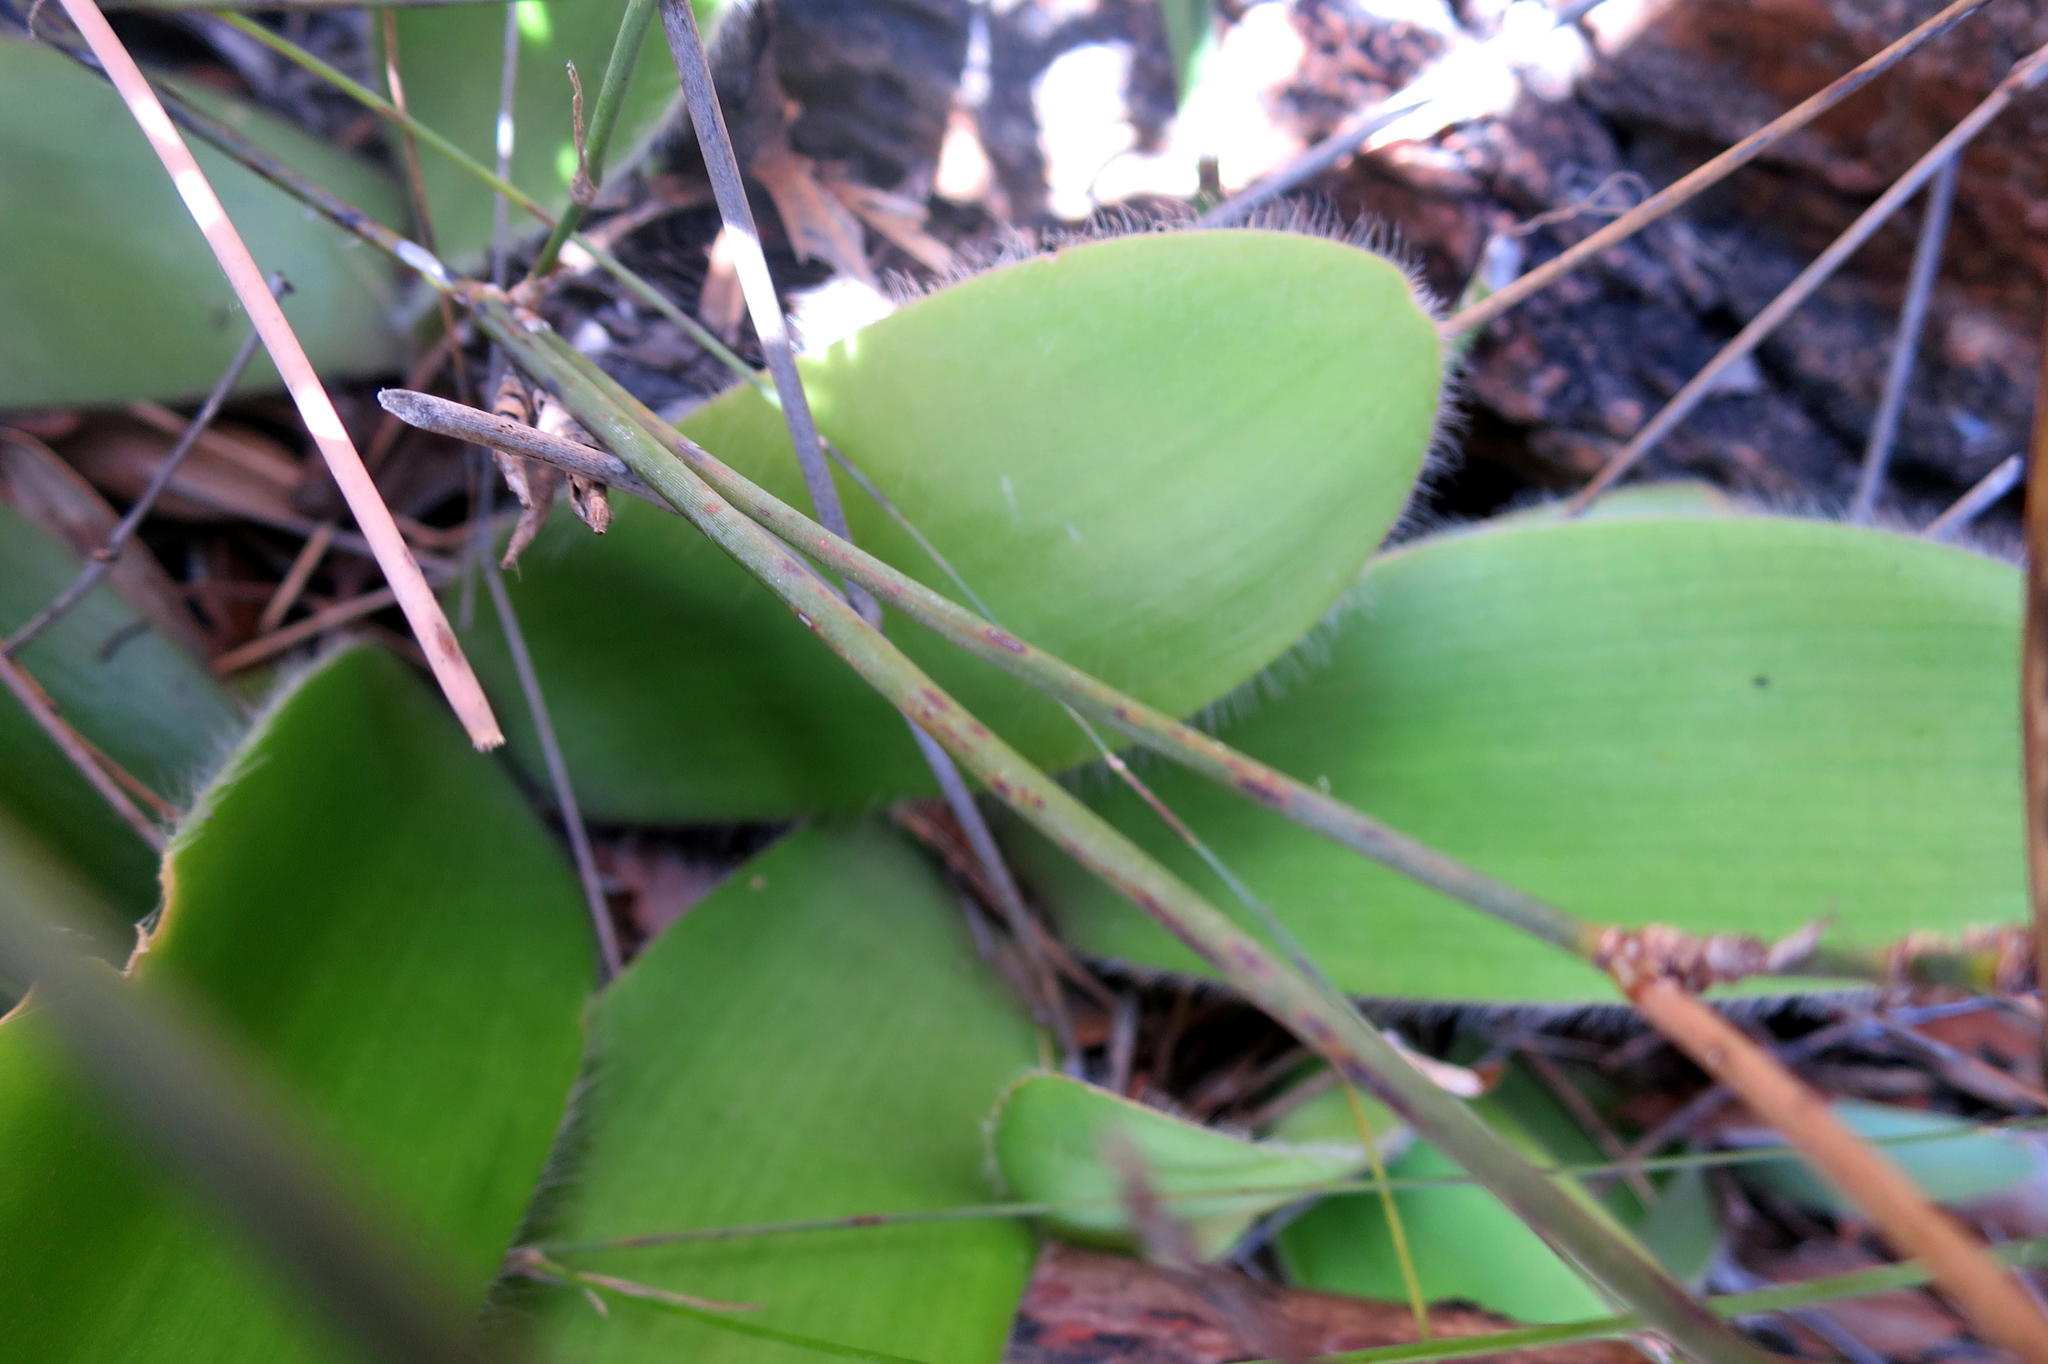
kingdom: Plantae
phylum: Tracheophyta
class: Liliopsida
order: Asparagales
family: Amaryllidaceae
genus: Haemanthus
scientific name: Haemanthus albiflos
